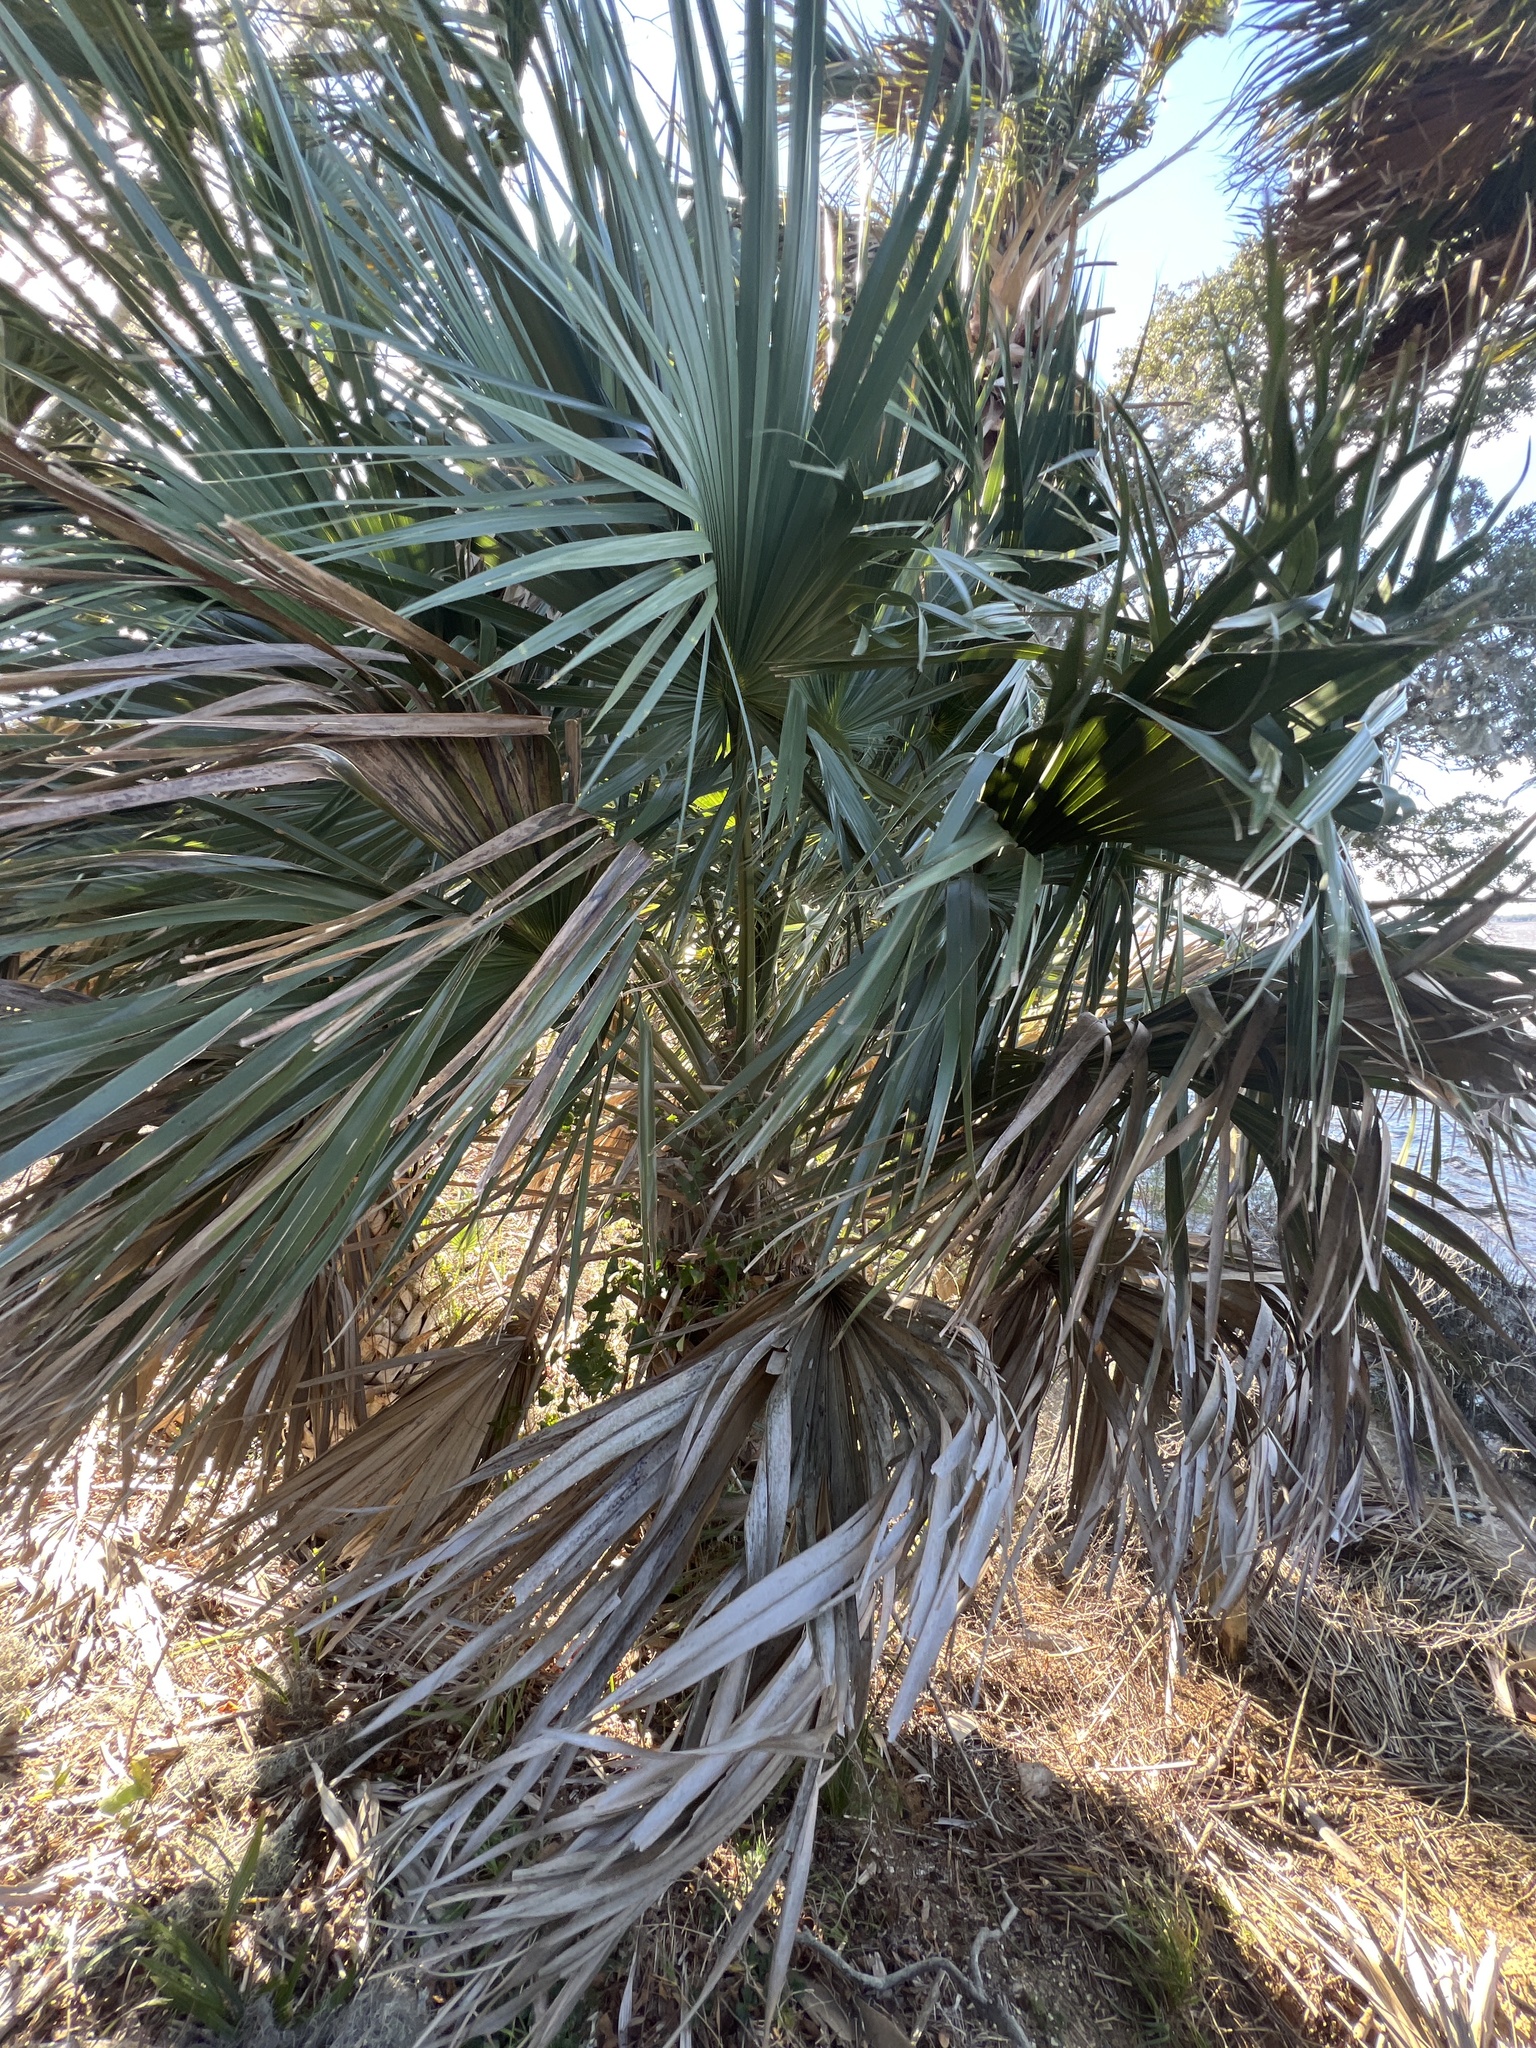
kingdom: Plantae
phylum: Tracheophyta
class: Liliopsida
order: Arecales
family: Arecaceae
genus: Sabal
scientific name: Sabal palmetto
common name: Blue palmetto
